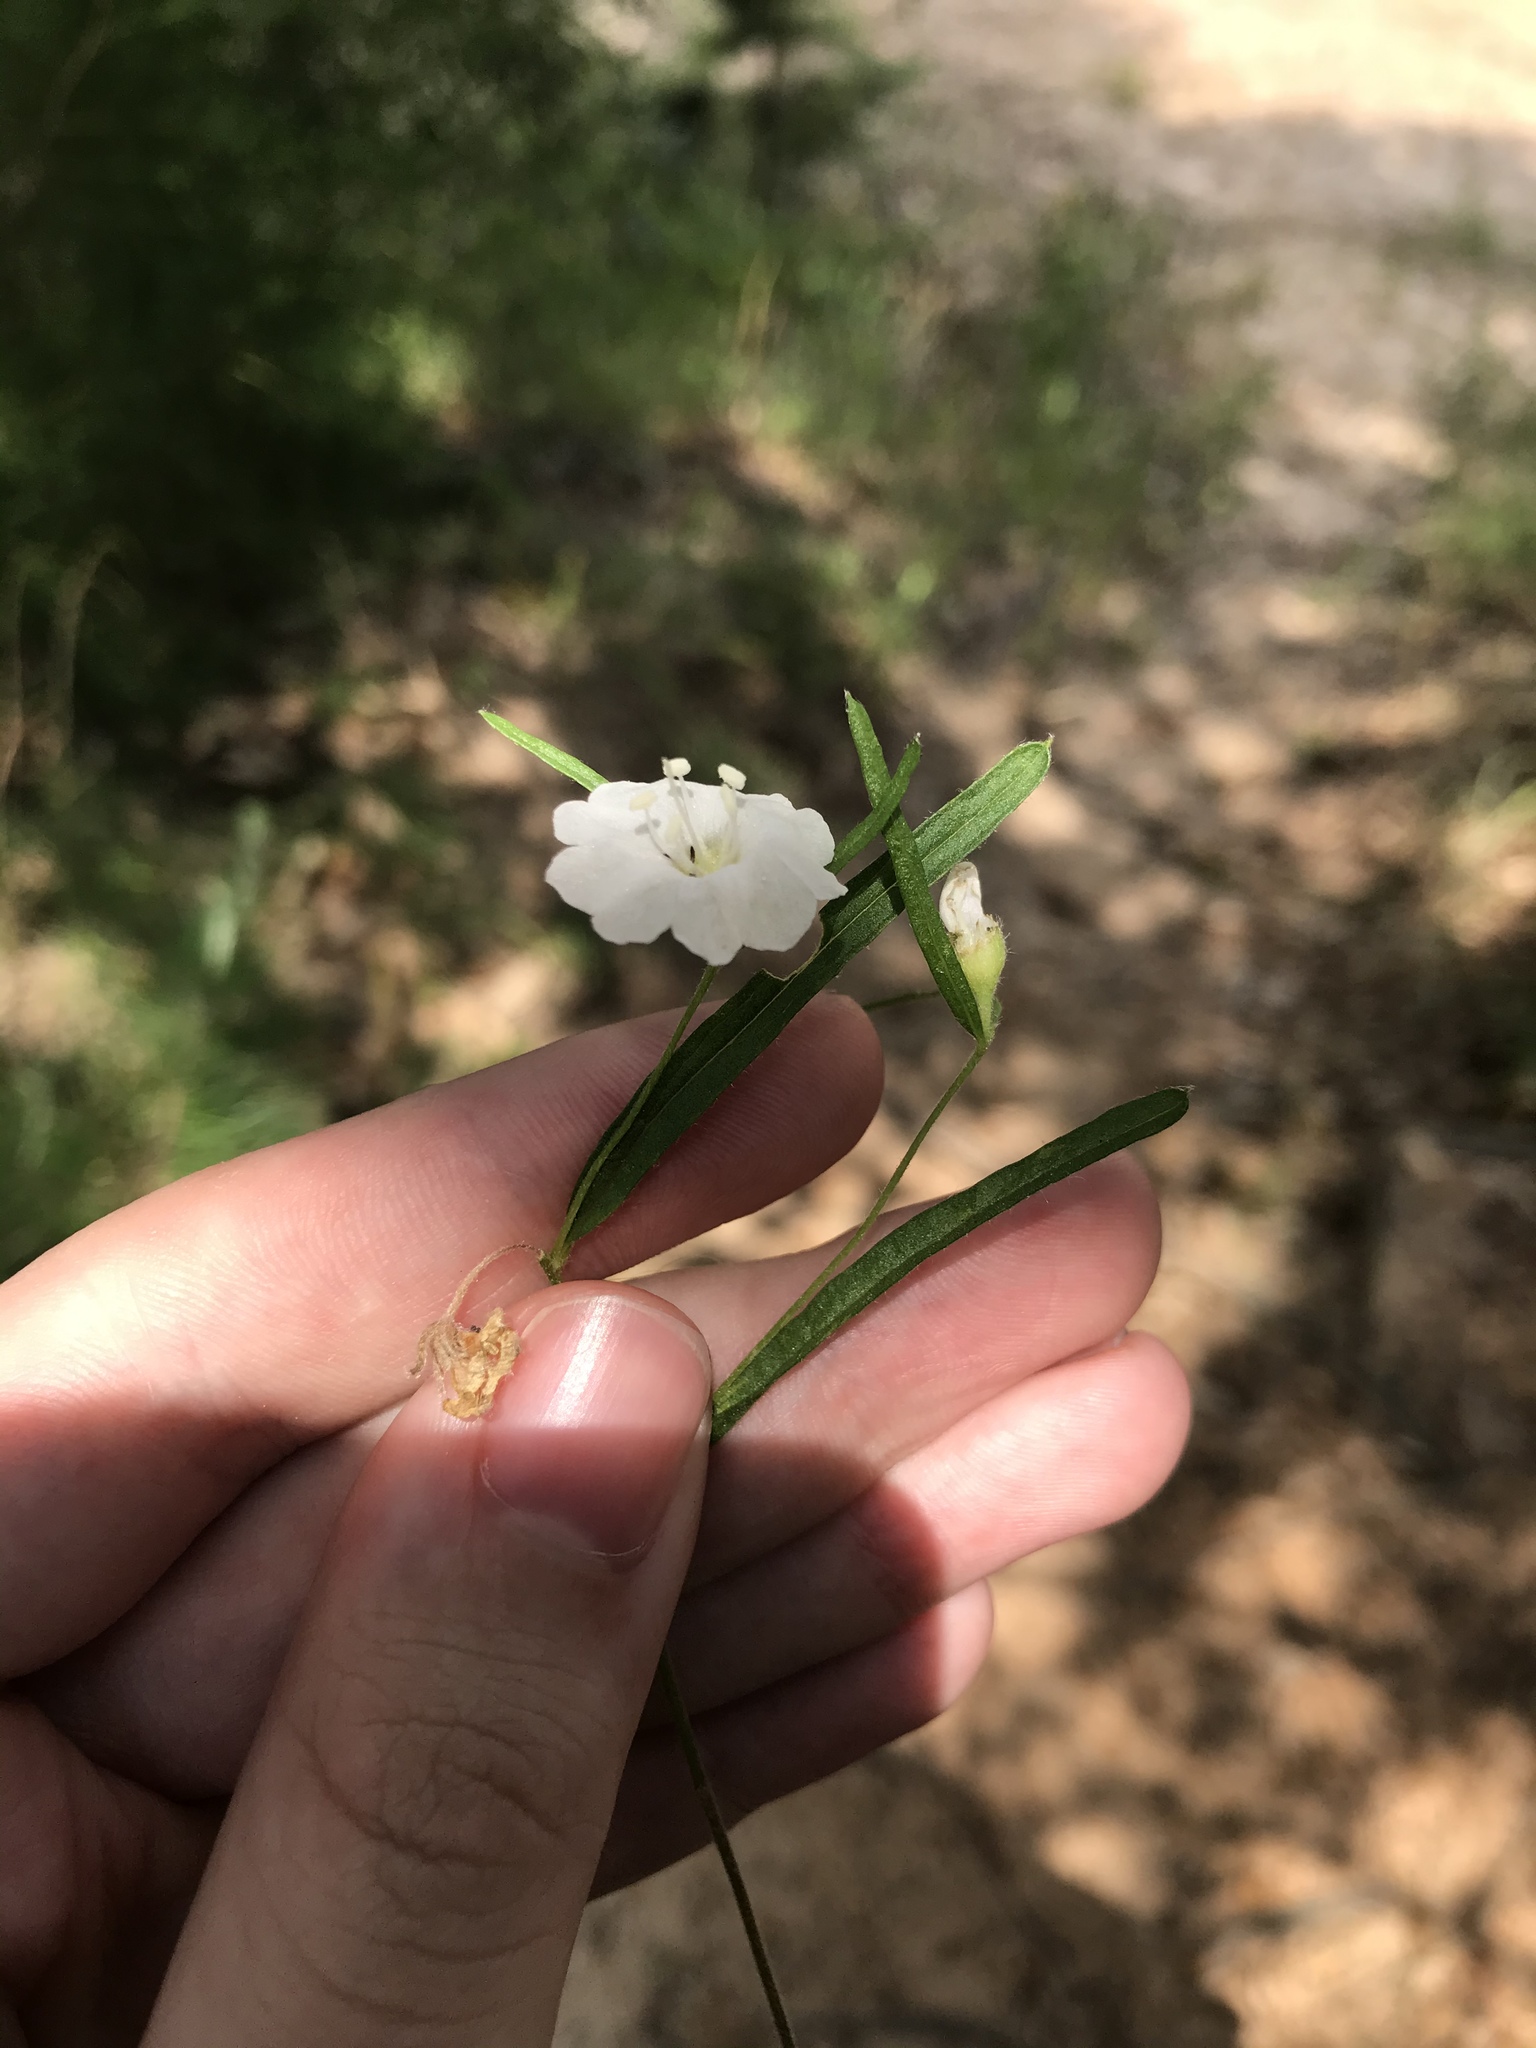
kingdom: Plantae
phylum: Tracheophyta
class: Magnoliopsida
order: Solanales
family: Convolvulaceae
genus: Stylisma
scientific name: Stylisma pickeringii
